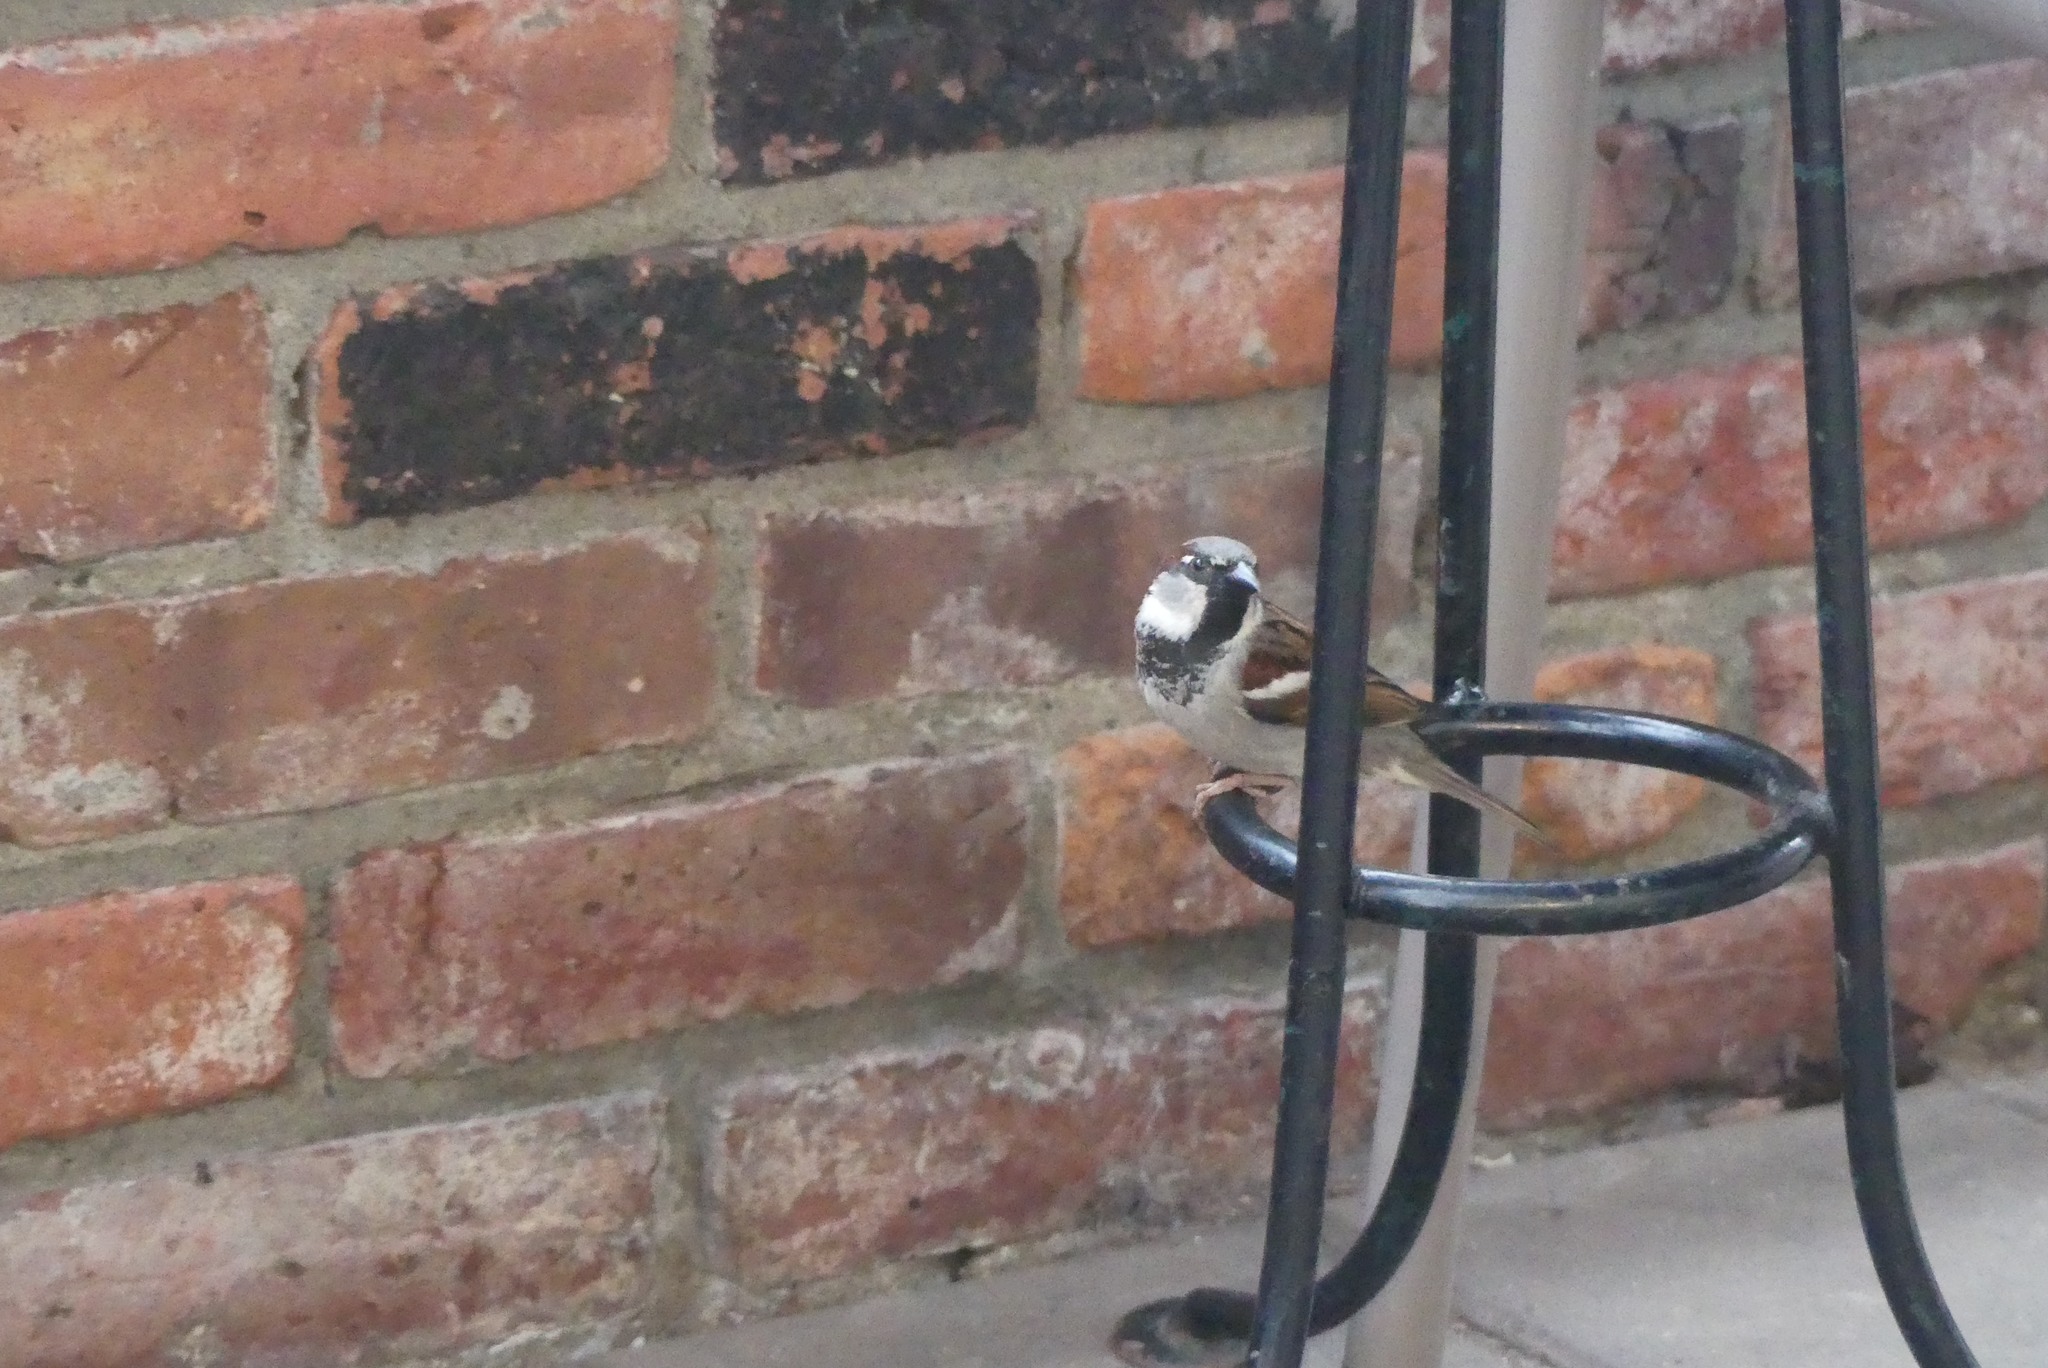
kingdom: Animalia
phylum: Chordata
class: Aves
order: Passeriformes
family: Passeridae
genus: Passer
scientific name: Passer domesticus
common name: House sparrow
